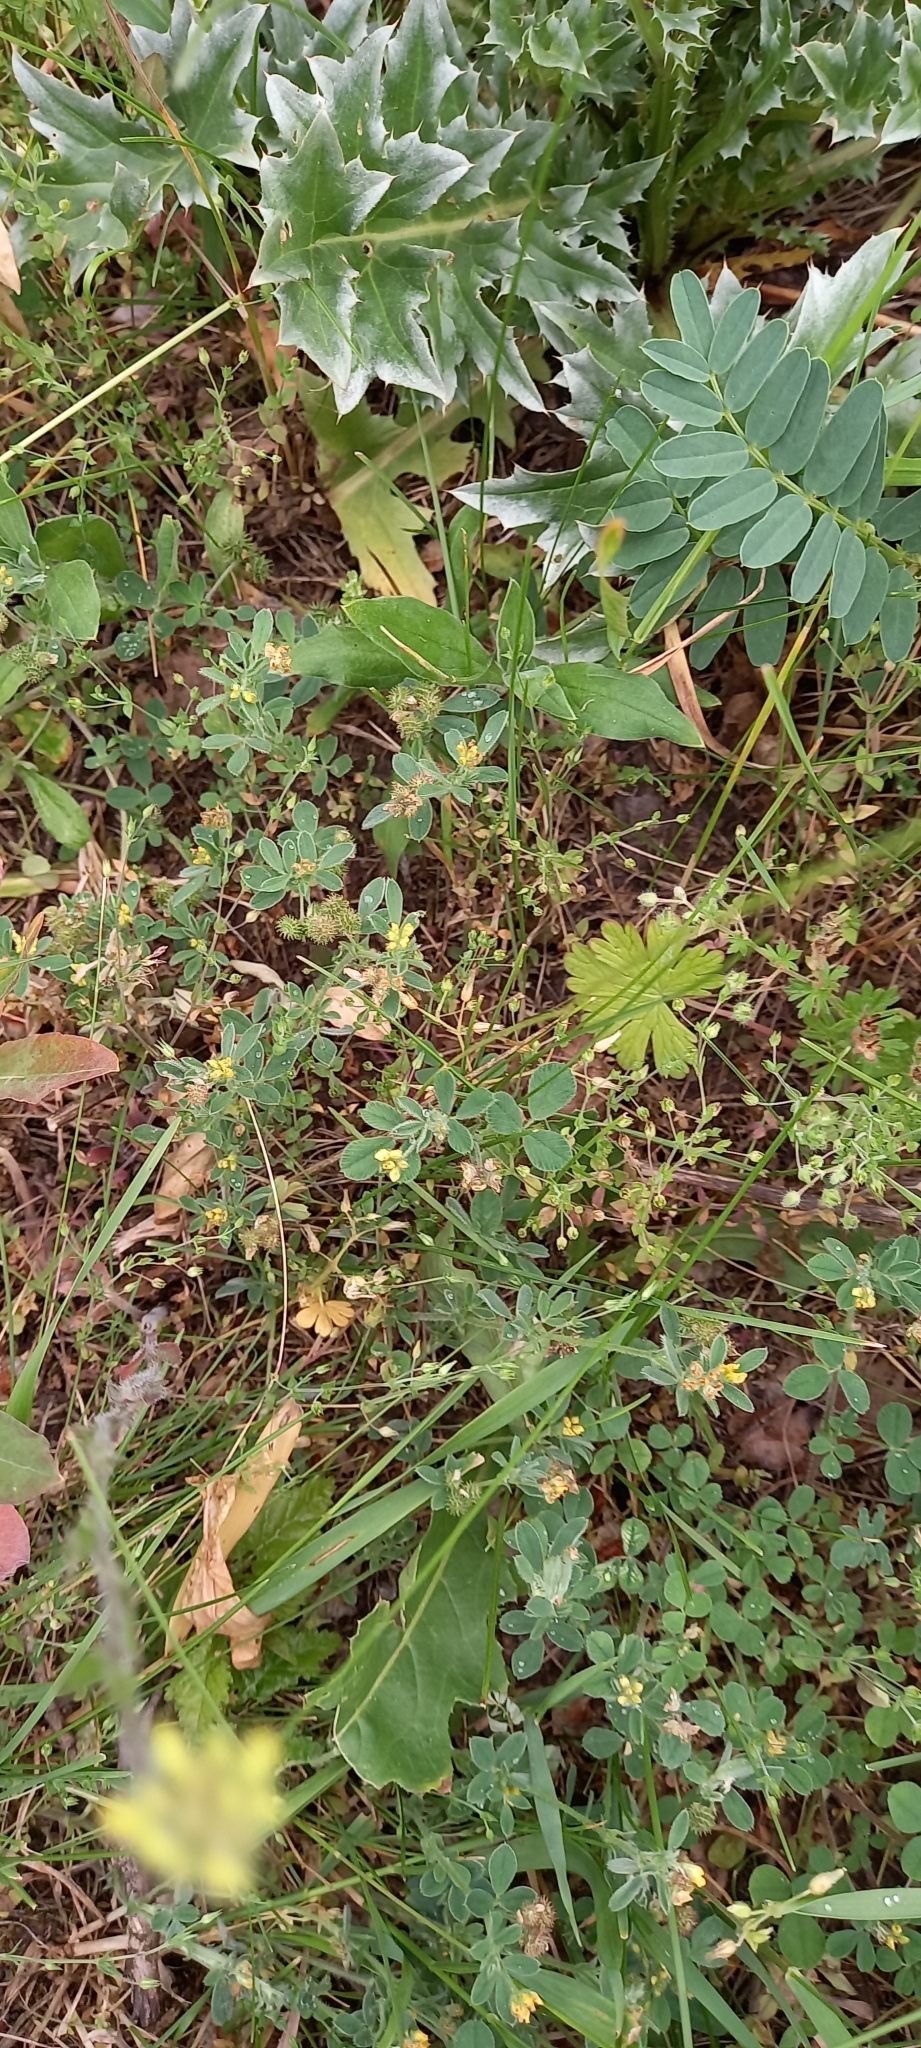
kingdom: Plantae
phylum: Tracheophyta
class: Magnoliopsida
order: Fabales
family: Fabaceae
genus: Medicago
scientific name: Medicago minima
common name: Little bur-clover
